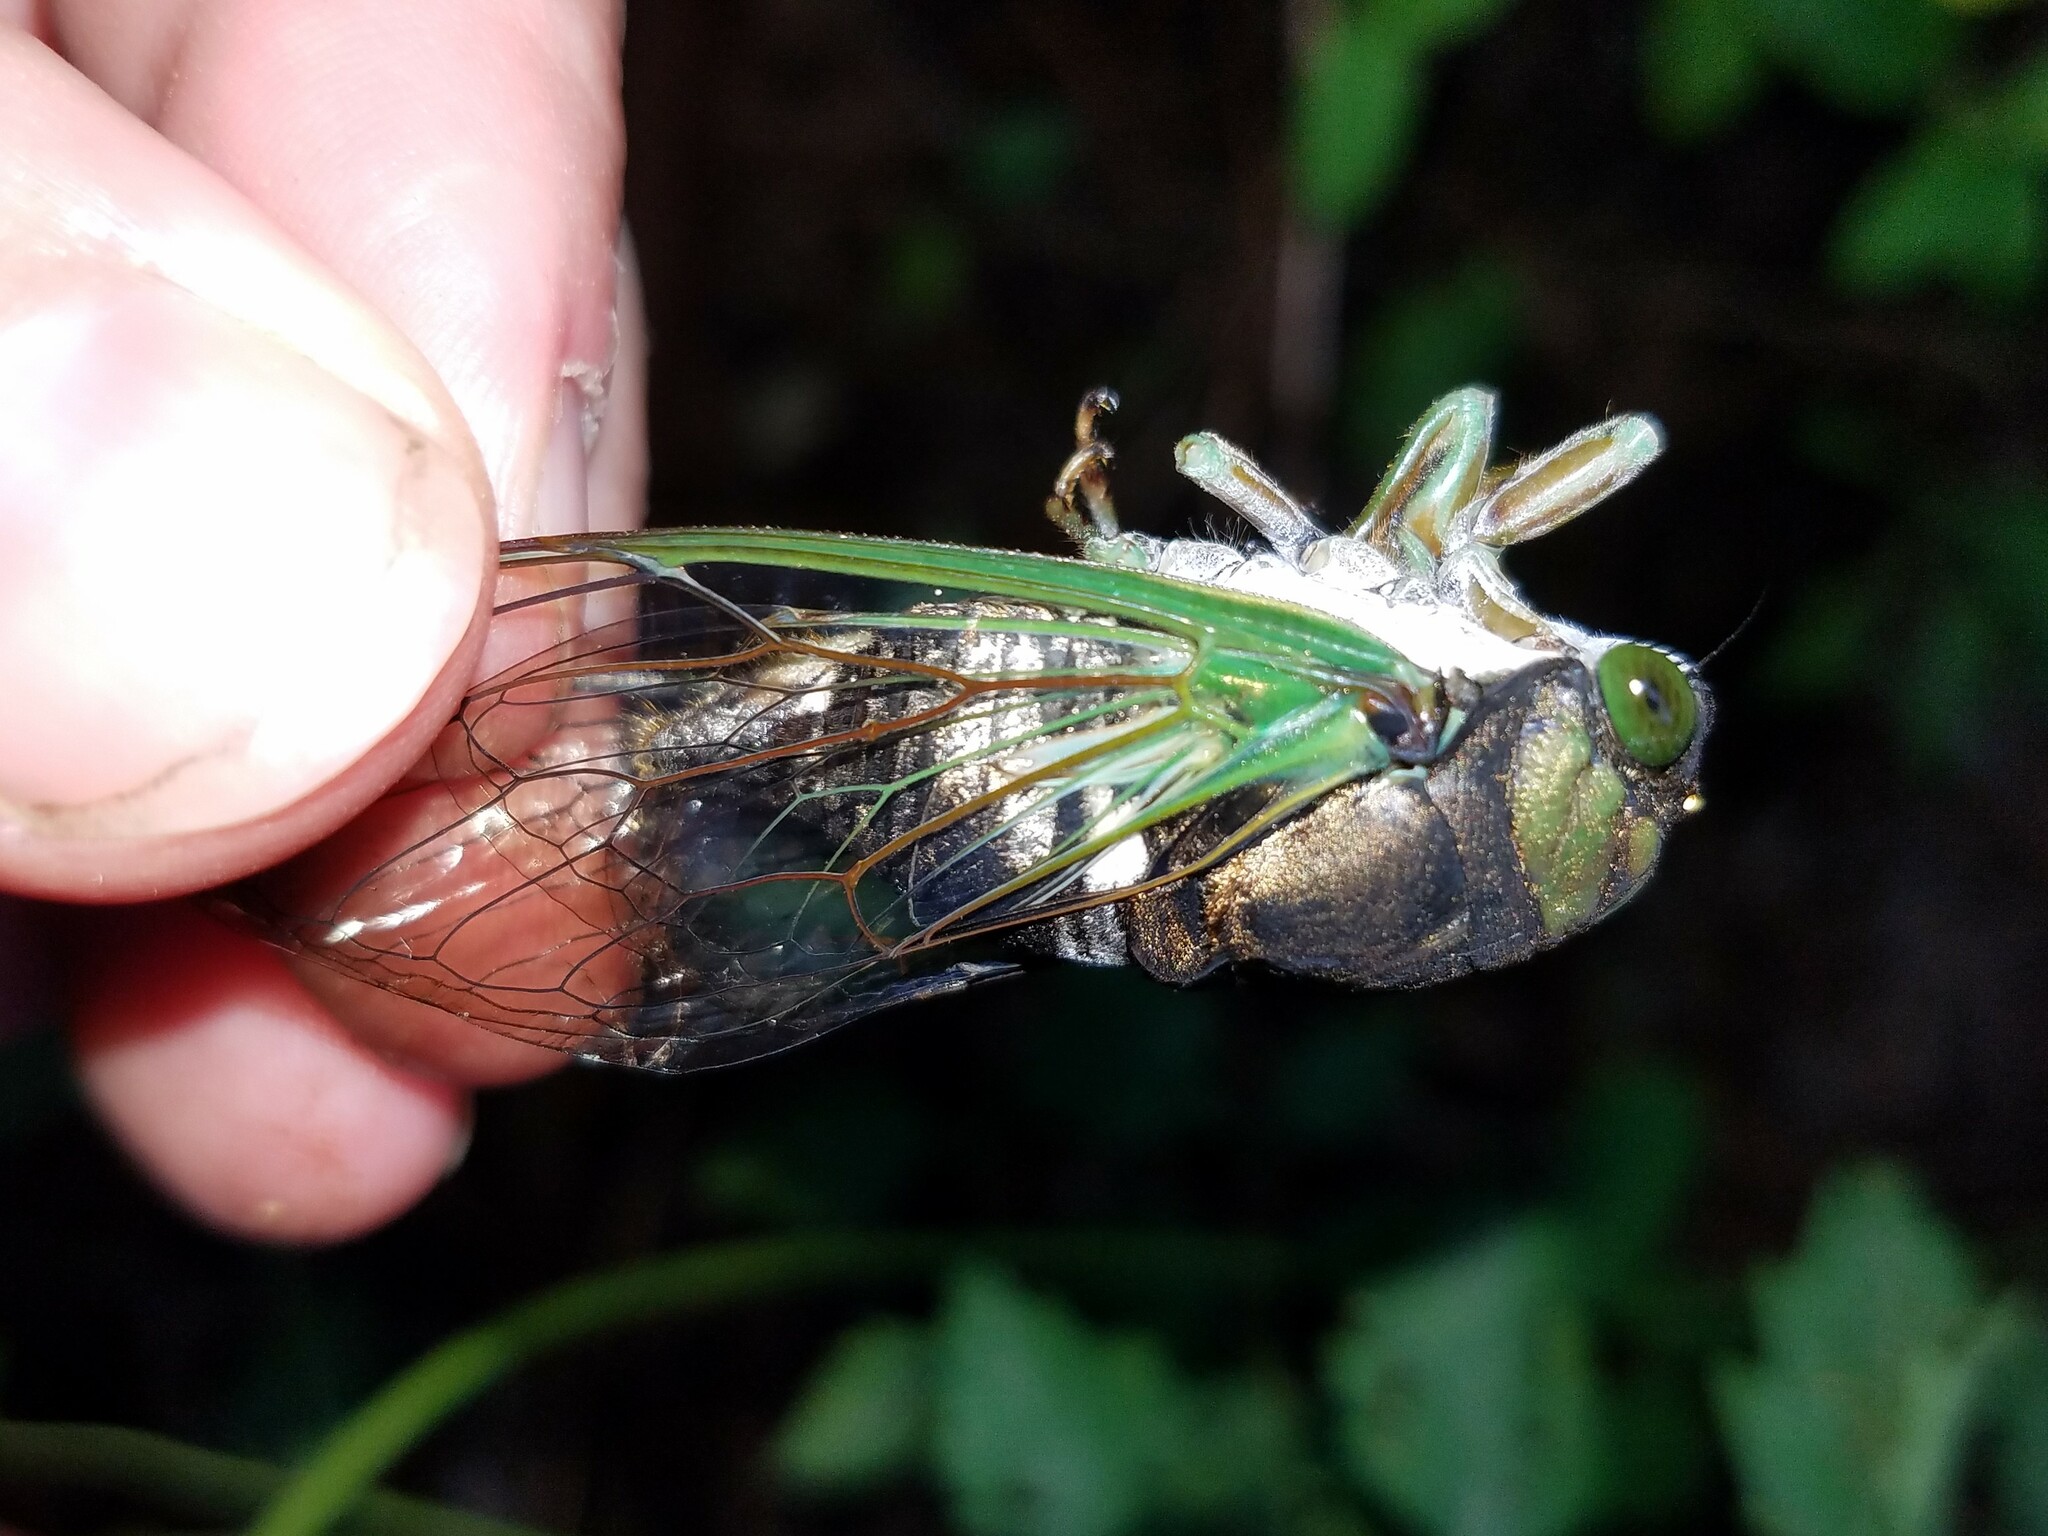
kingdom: Animalia
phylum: Arthropoda
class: Insecta
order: Hemiptera
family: Cicadidae
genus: Neotibicen
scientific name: Neotibicen tibicen
